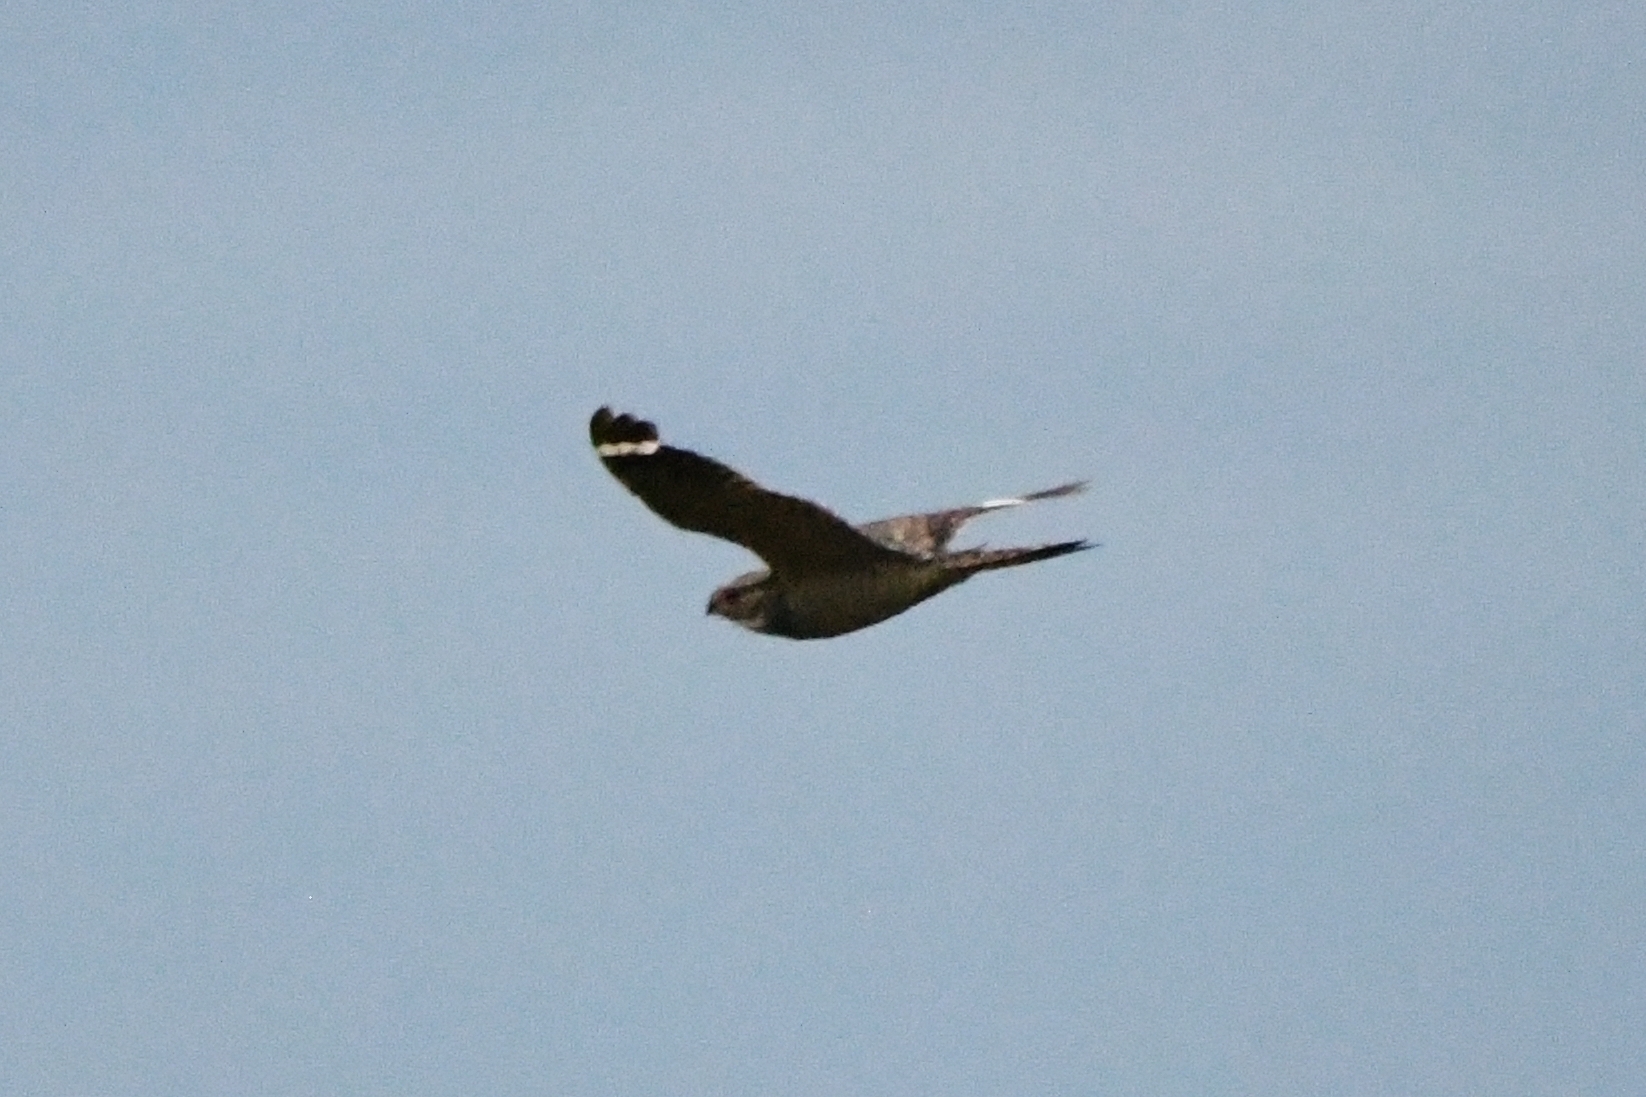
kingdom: Animalia
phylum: Chordata
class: Aves
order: Caprimulgiformes
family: Caprimulgidae
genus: Chordeiles
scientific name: Chordeiles minor
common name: Common nighthawk
